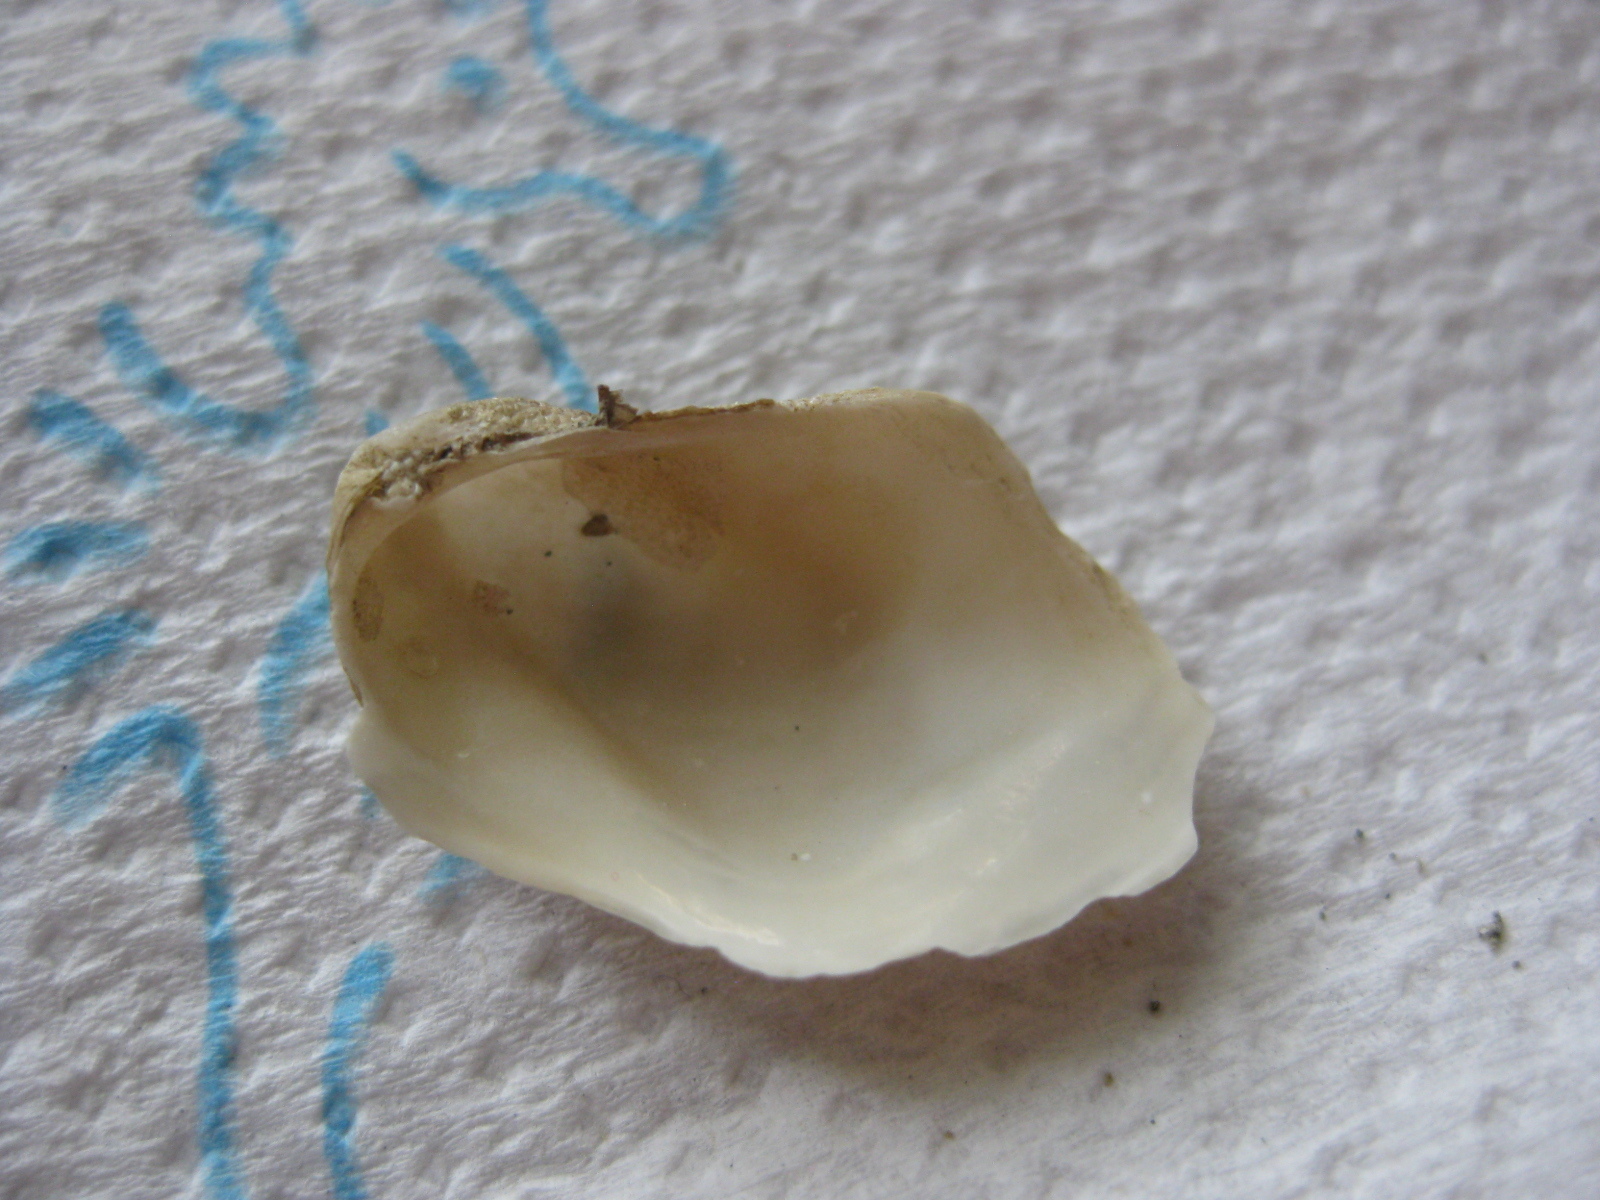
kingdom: Animalia
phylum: Mollusca
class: Bivalvia
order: Adapedonta
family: Hiatellidae
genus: Hiatella
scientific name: Hiatella arctica
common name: Arctic hiatella
